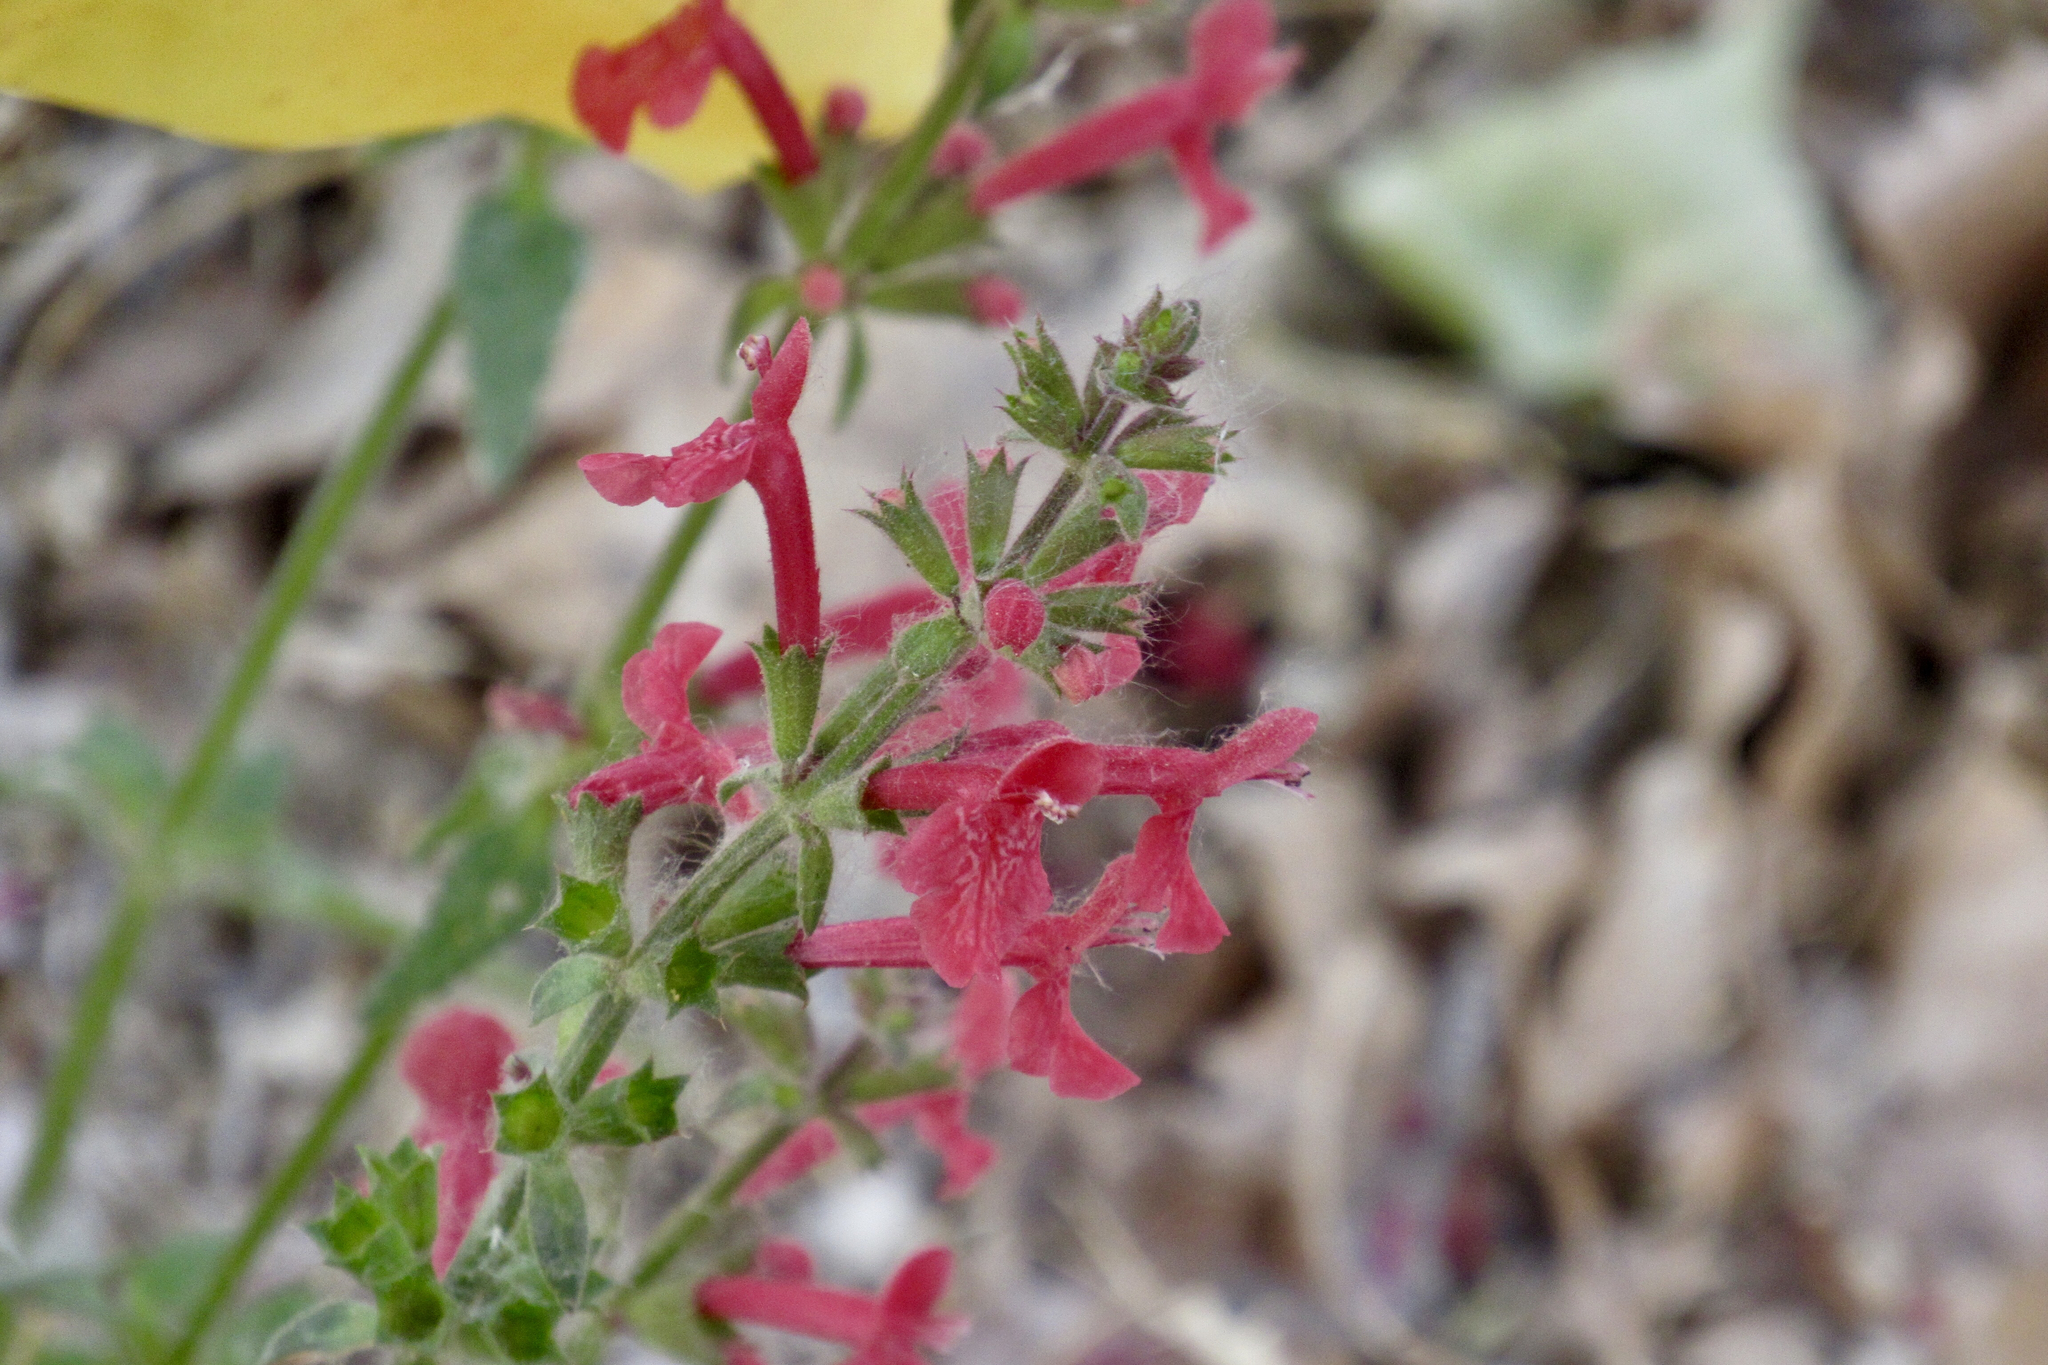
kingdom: Plantae
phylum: Tracheophyta
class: Magnoliopsida
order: Lamiales
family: Lamiaceae
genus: Stachys
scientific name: Stachys coccinea
